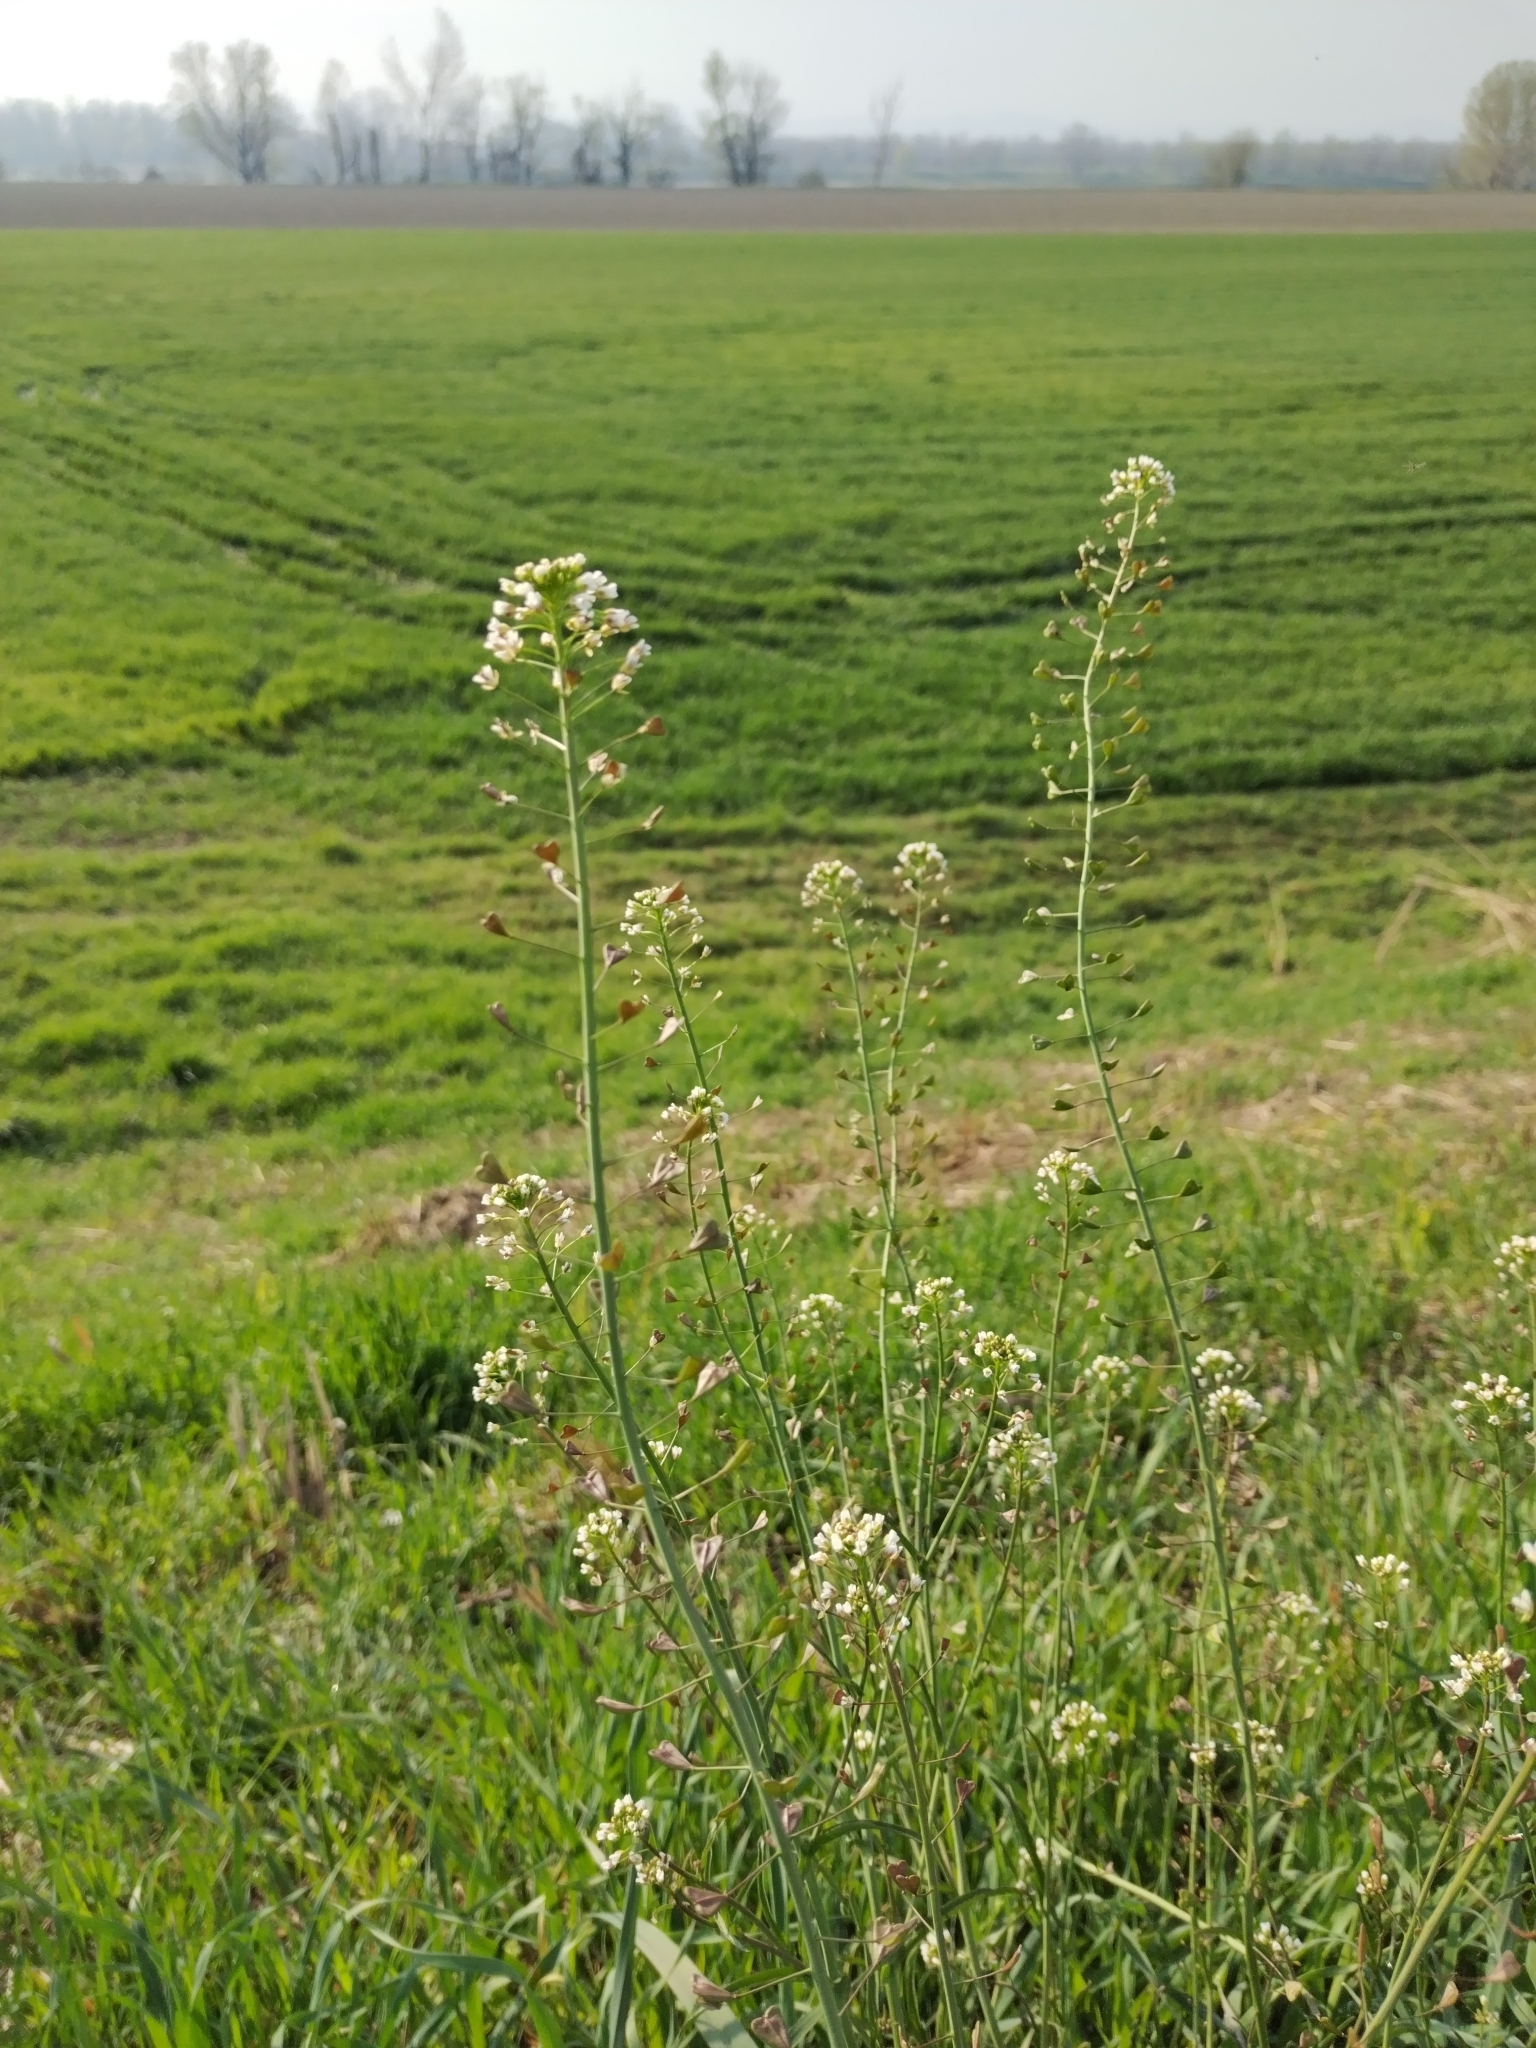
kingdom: Plantae
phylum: Tracheophyta
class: Magnoliopsida
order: Brassicales
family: Brassicaceae
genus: Capsella
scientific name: Capsella bursa-pastoris
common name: Shepherd's purse
